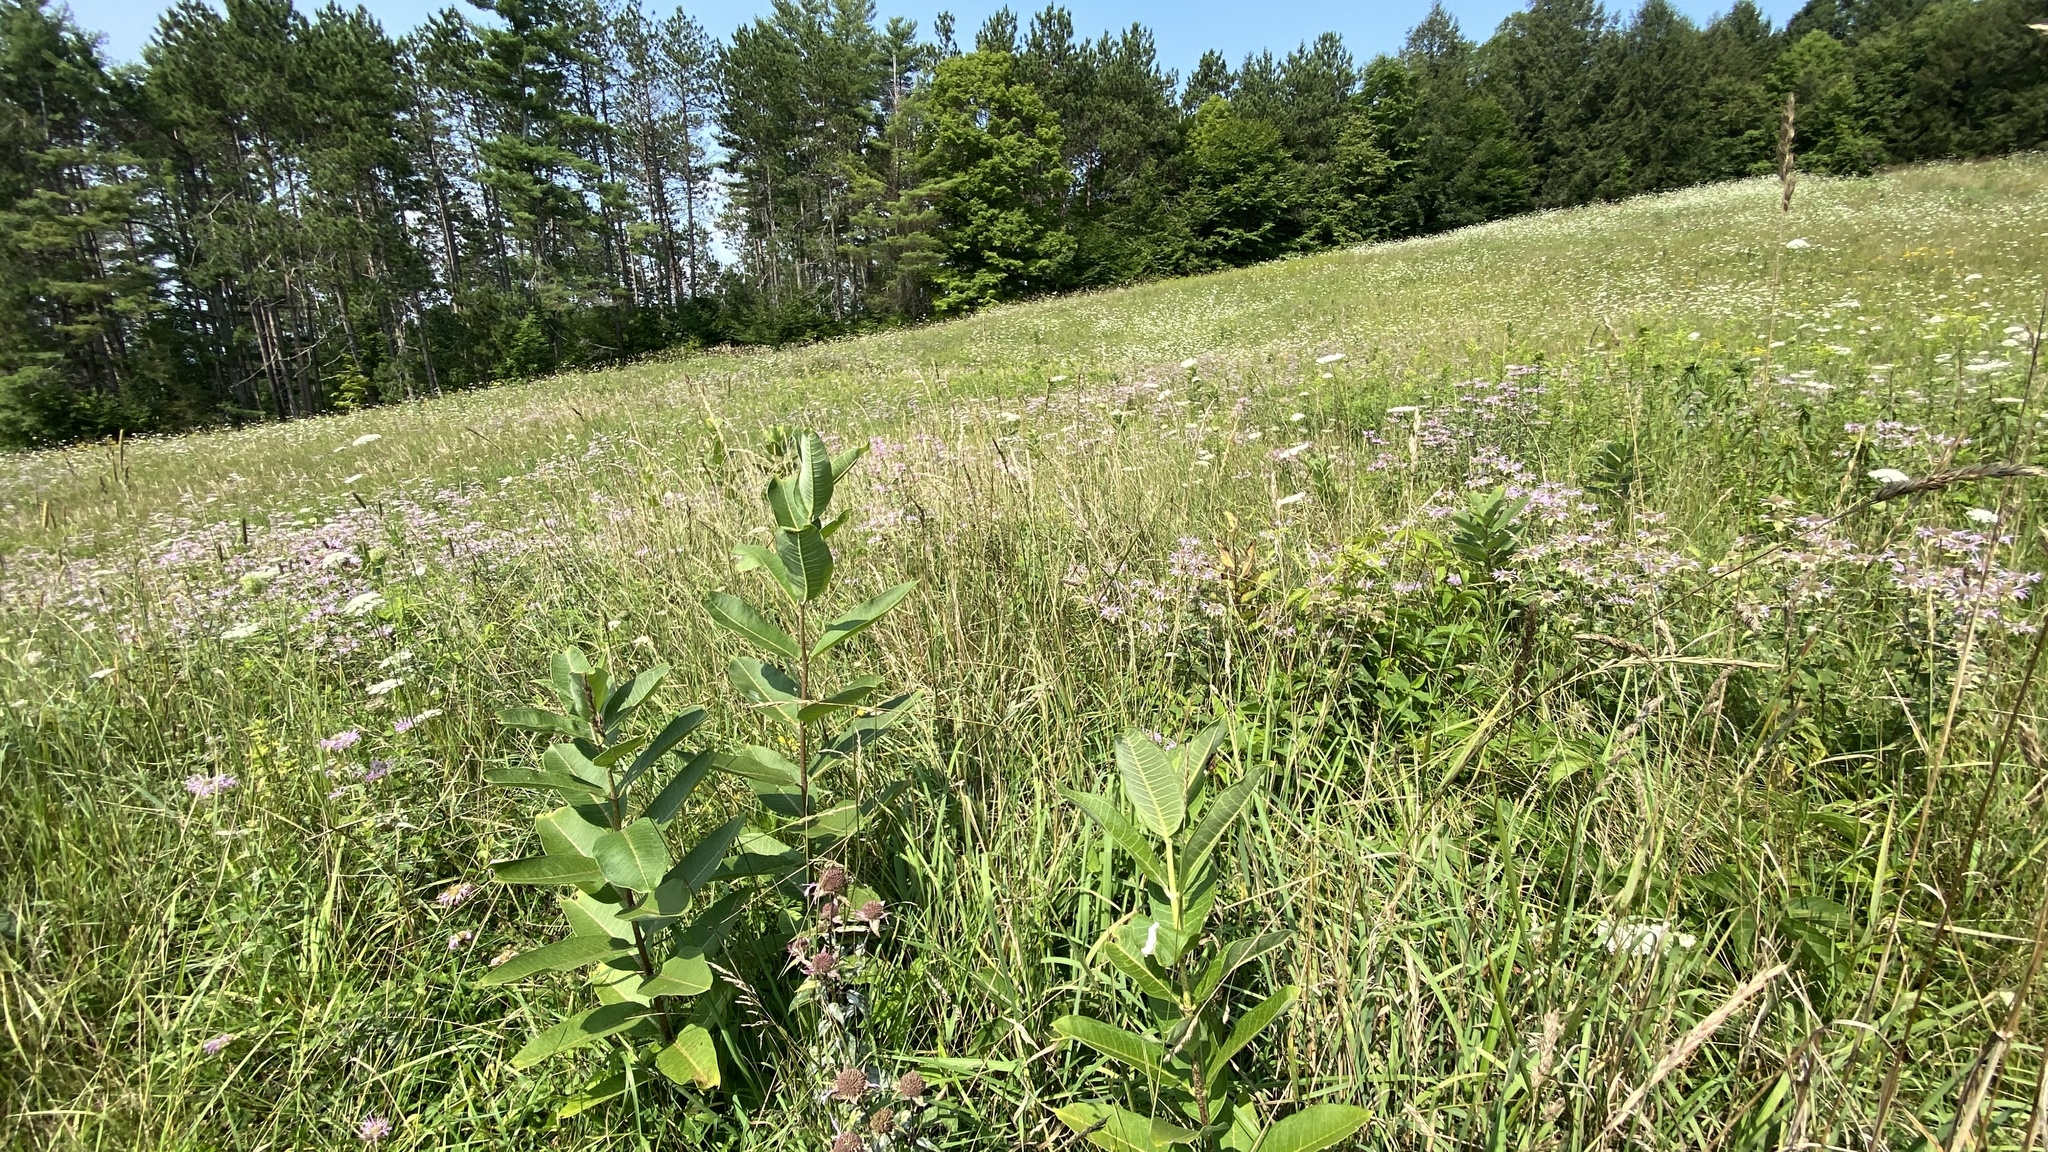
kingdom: Plantae
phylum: Tracheophyta
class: Magnoliopsida
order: Gentianales
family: Apocynaceae
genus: Asclepias
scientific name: Asclepias syriaca
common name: Common milkweed
